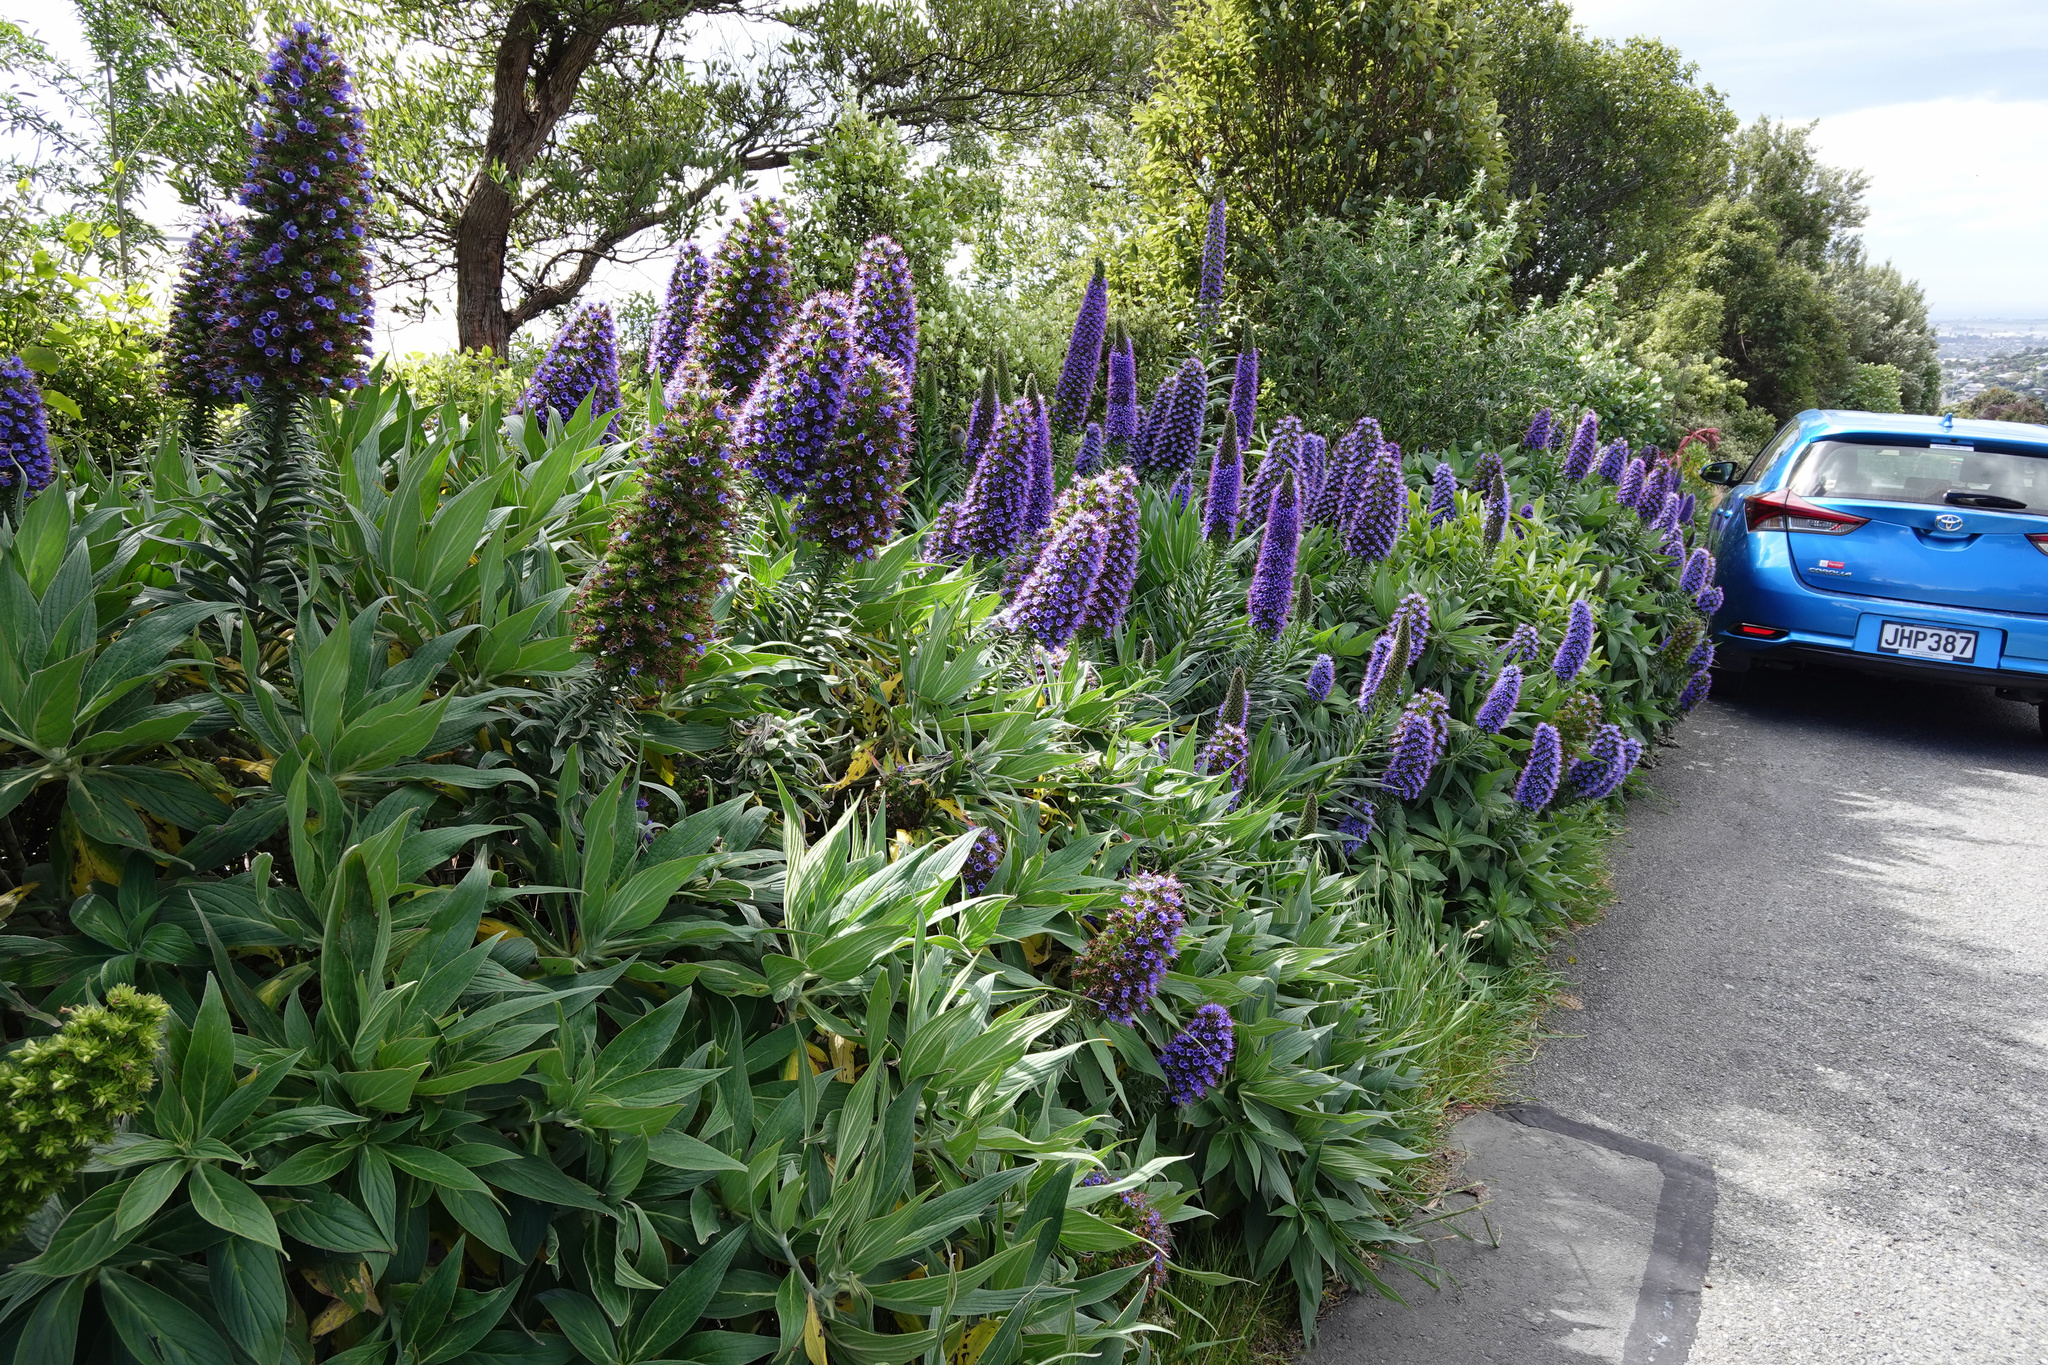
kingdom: Plantae
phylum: Tracheophyta
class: Magnoliopsida
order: Boraginales
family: Boraginaceae
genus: Echium
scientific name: Echium candicans
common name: Pride of madeira
